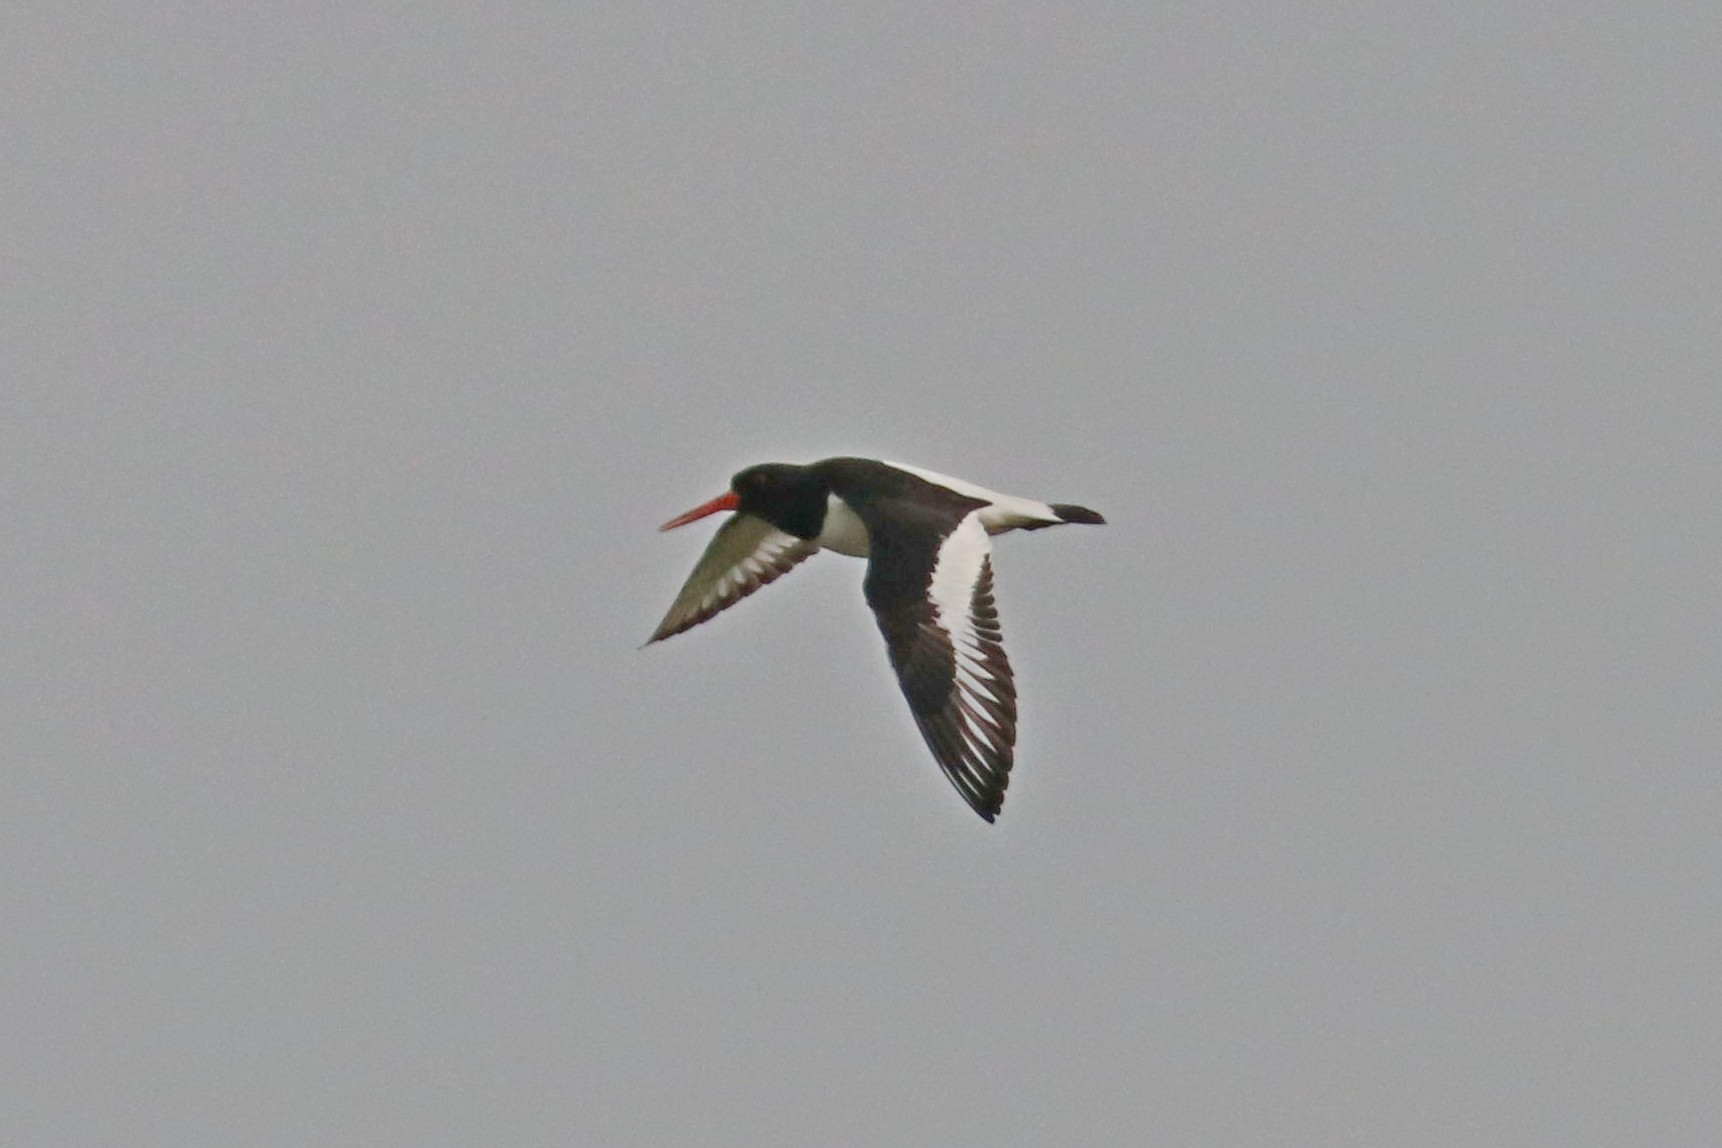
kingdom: Animalia
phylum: Chordata
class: Aves
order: Charadriiformes
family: Haematopodidae
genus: Haematopus
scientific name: Haematopus ostralegus
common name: Eurasian oystercatcher
